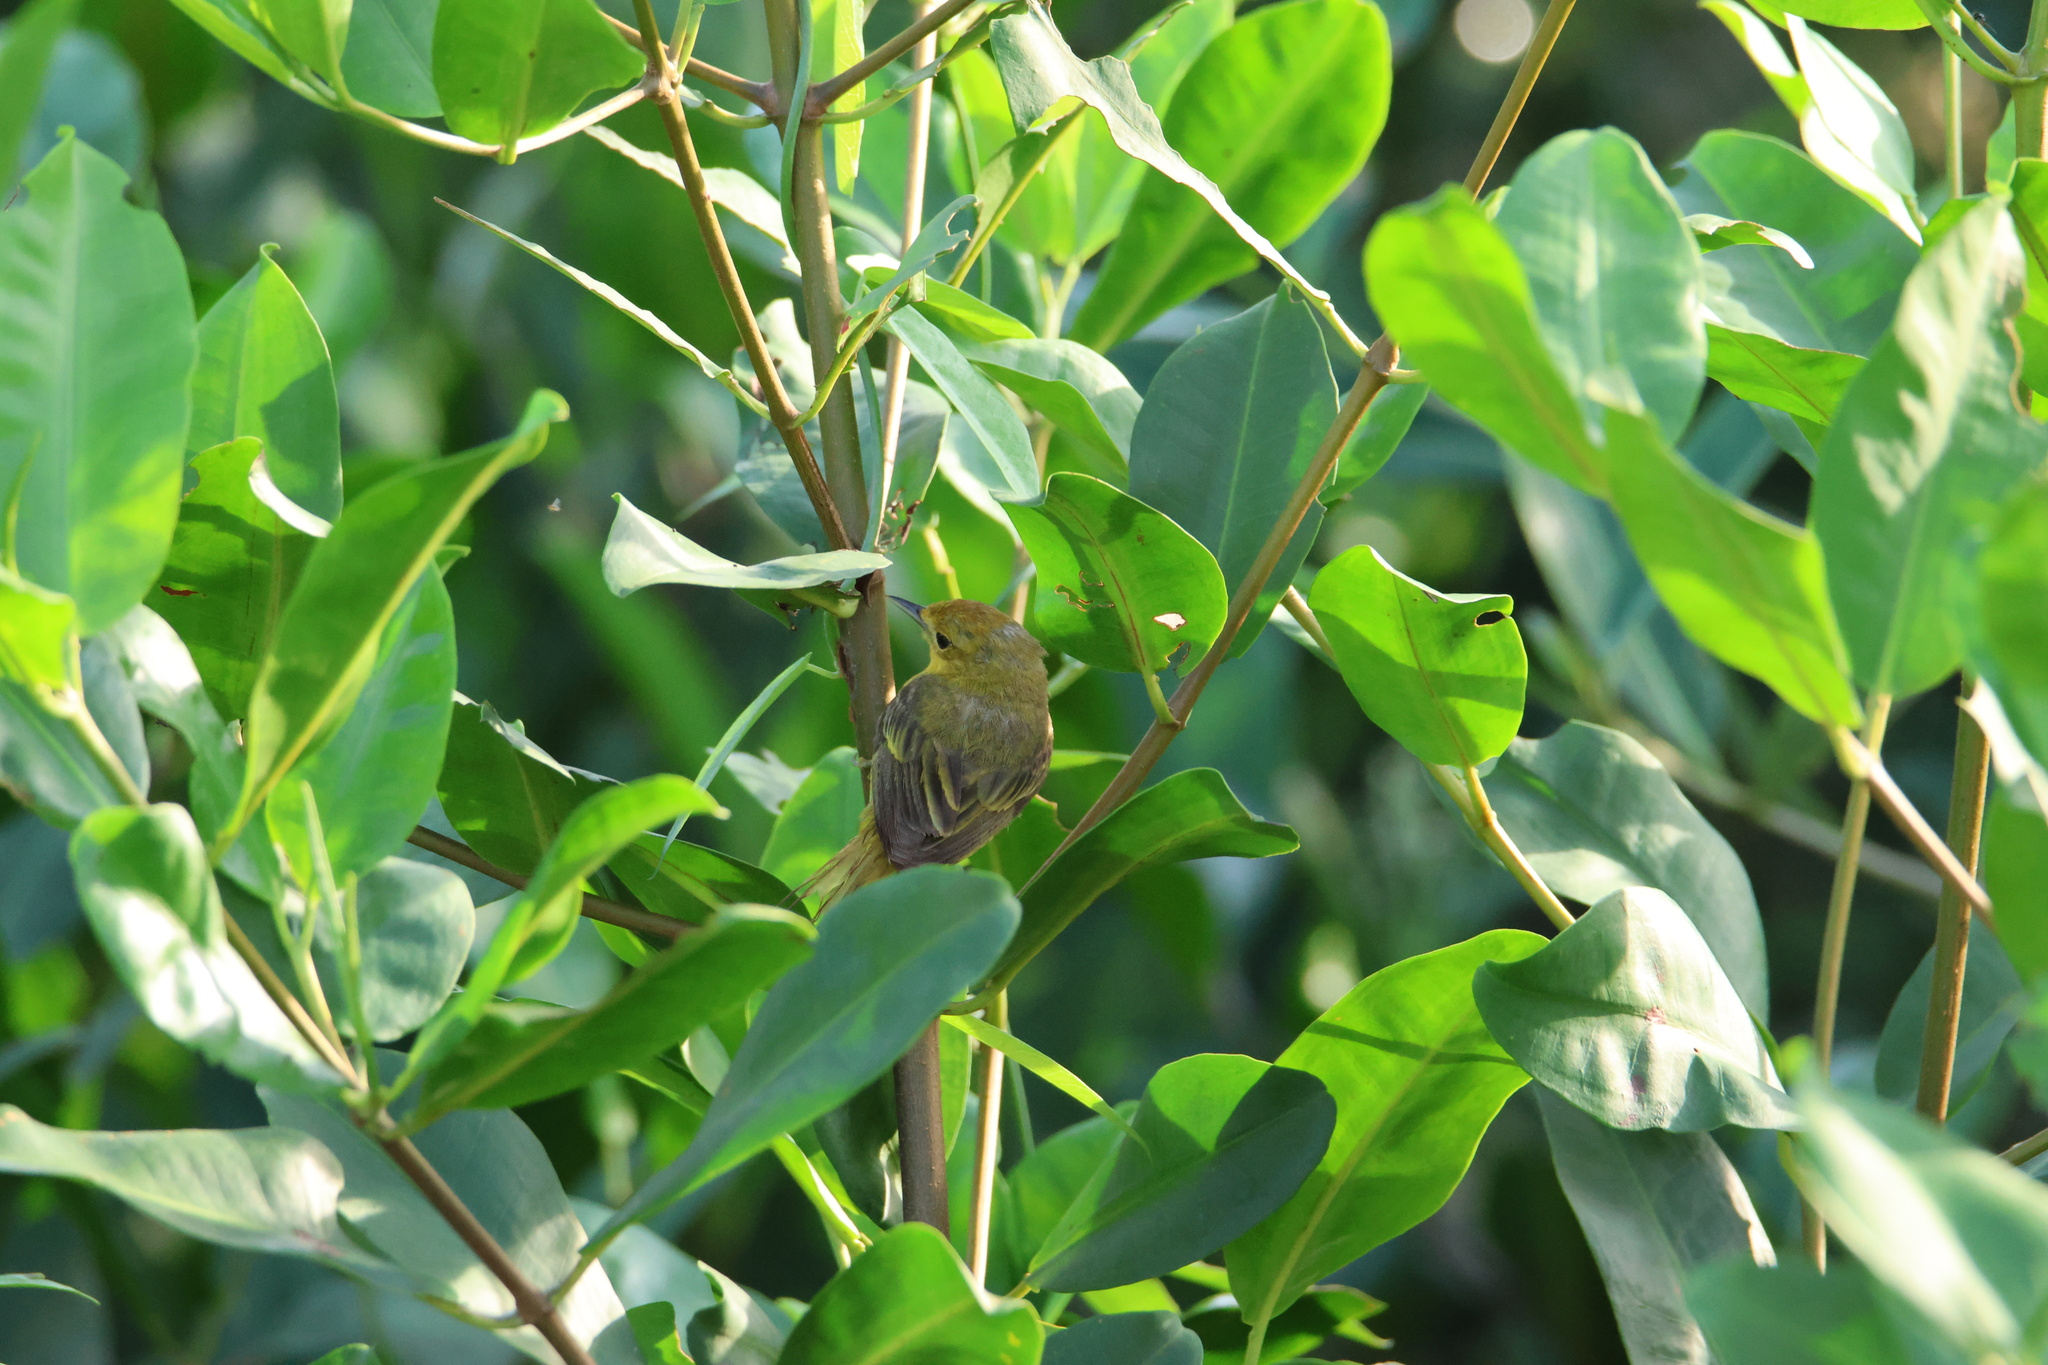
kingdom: Animalia
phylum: Chordata
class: Aves
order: Passeriformes
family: Parulidae
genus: Setophaga
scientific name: Setophaga petechia
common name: Yellow warbler
